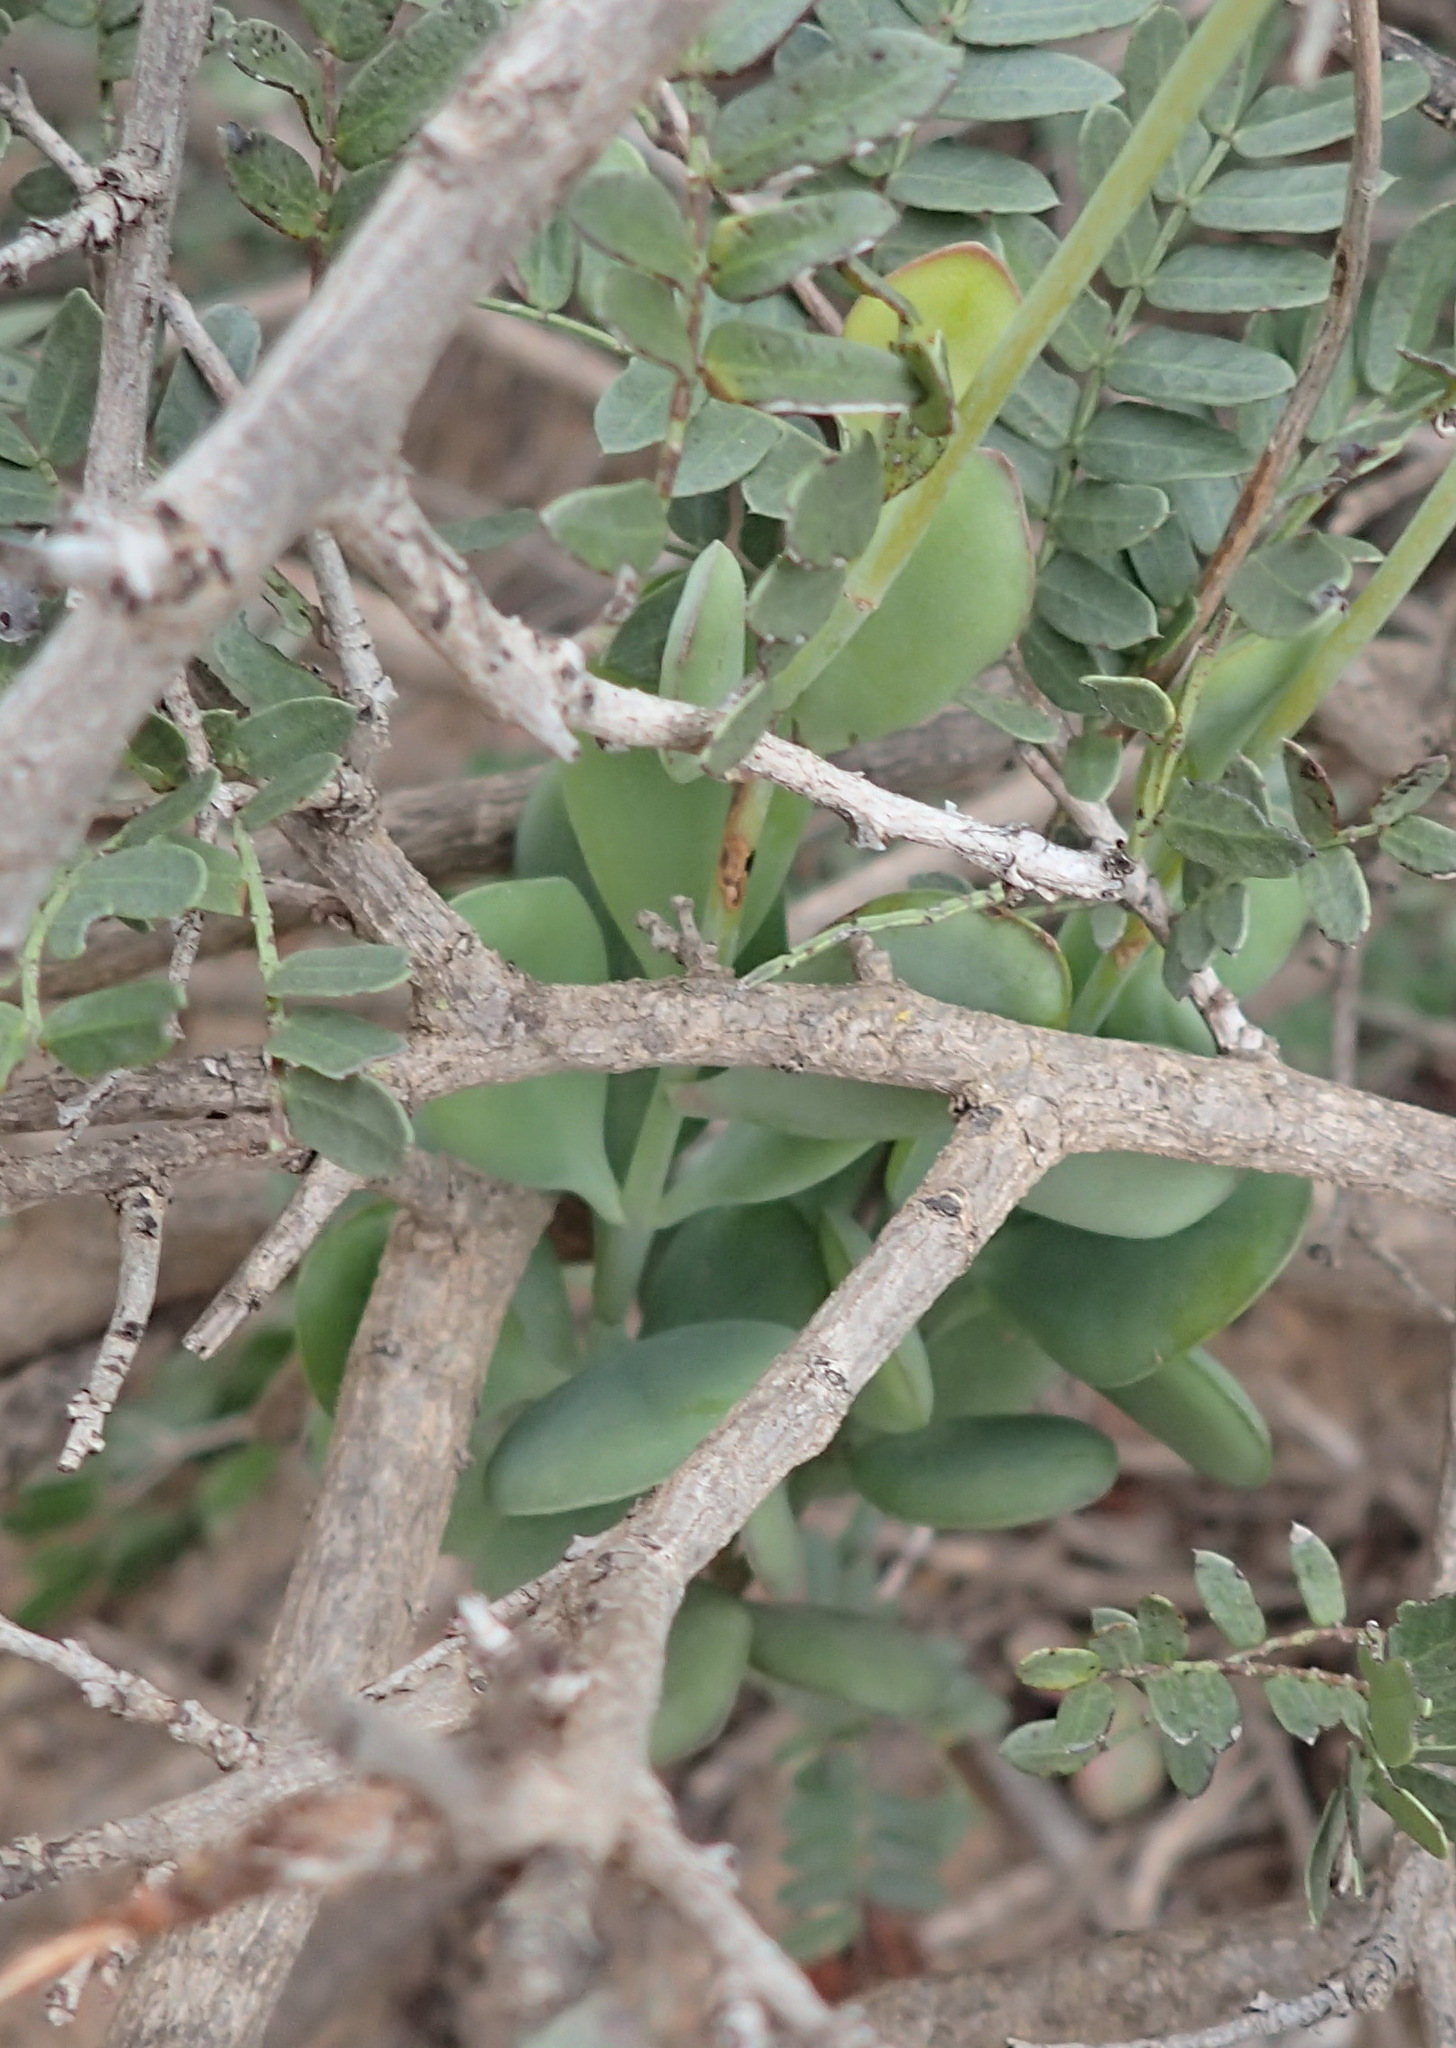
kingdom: Plantae
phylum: Tracheophyta
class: Magnoliopsida
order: Saxifragales
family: Crassulaceae
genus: Kalanchoe
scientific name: Kalanchoe rotundifolia
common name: Common kalanchoe
